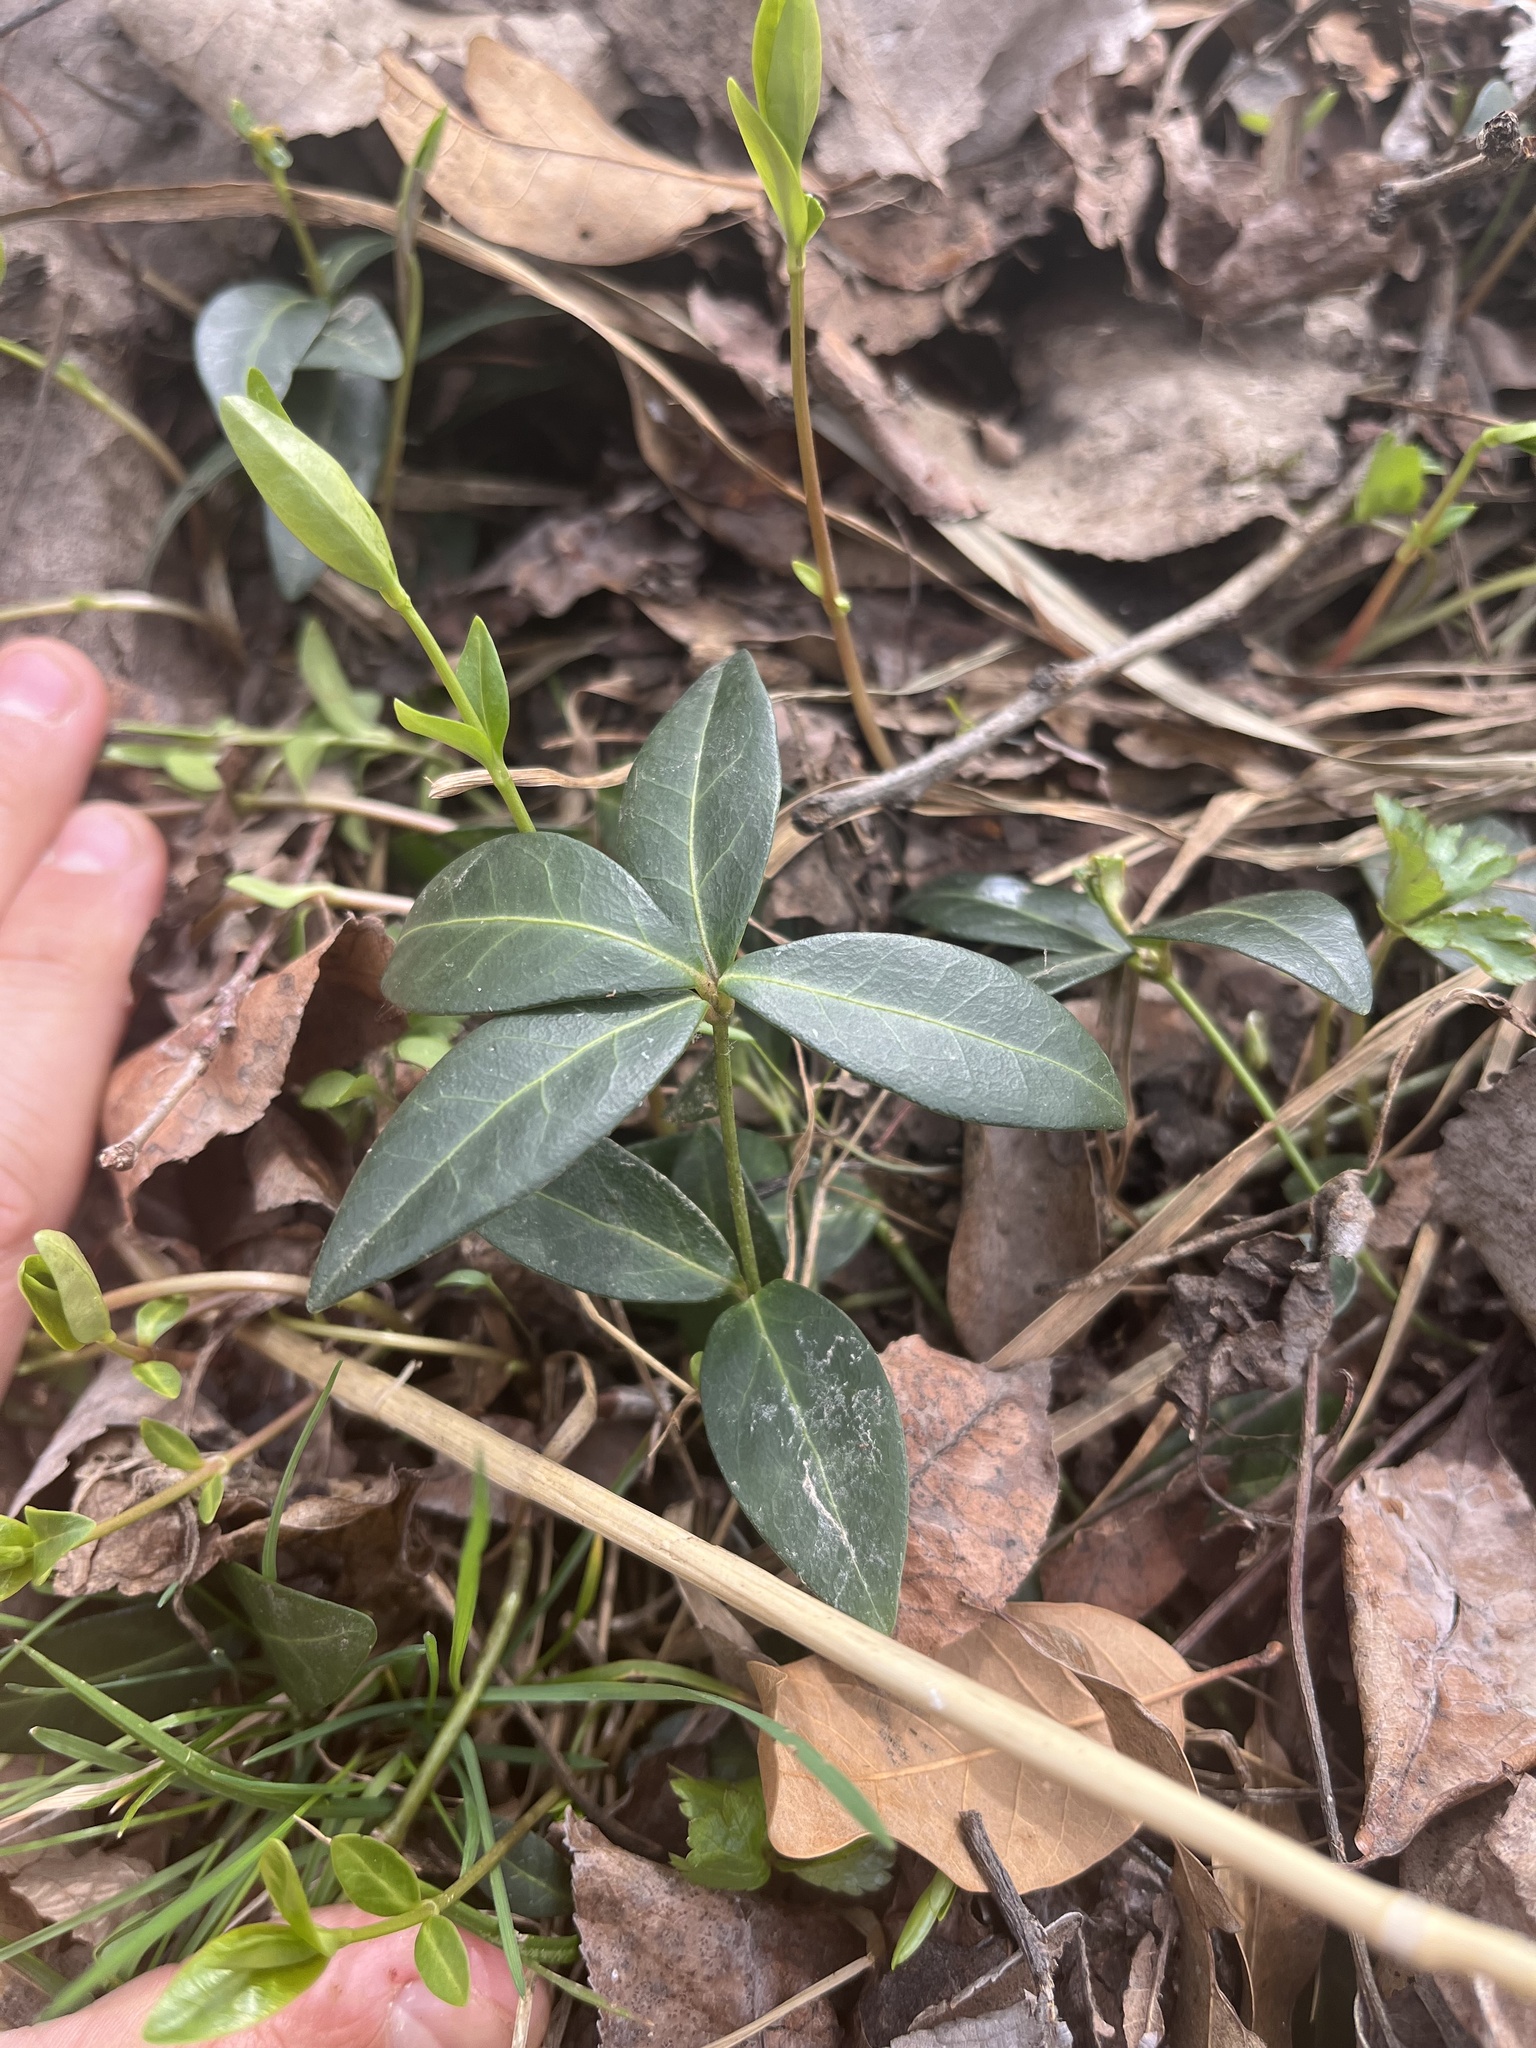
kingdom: Plantae
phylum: Tracheophyta
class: Magnoliopsida
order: Gentianales
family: Apocynaceae
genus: Vinca
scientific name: Vinca minor
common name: Lesser periwinkle
